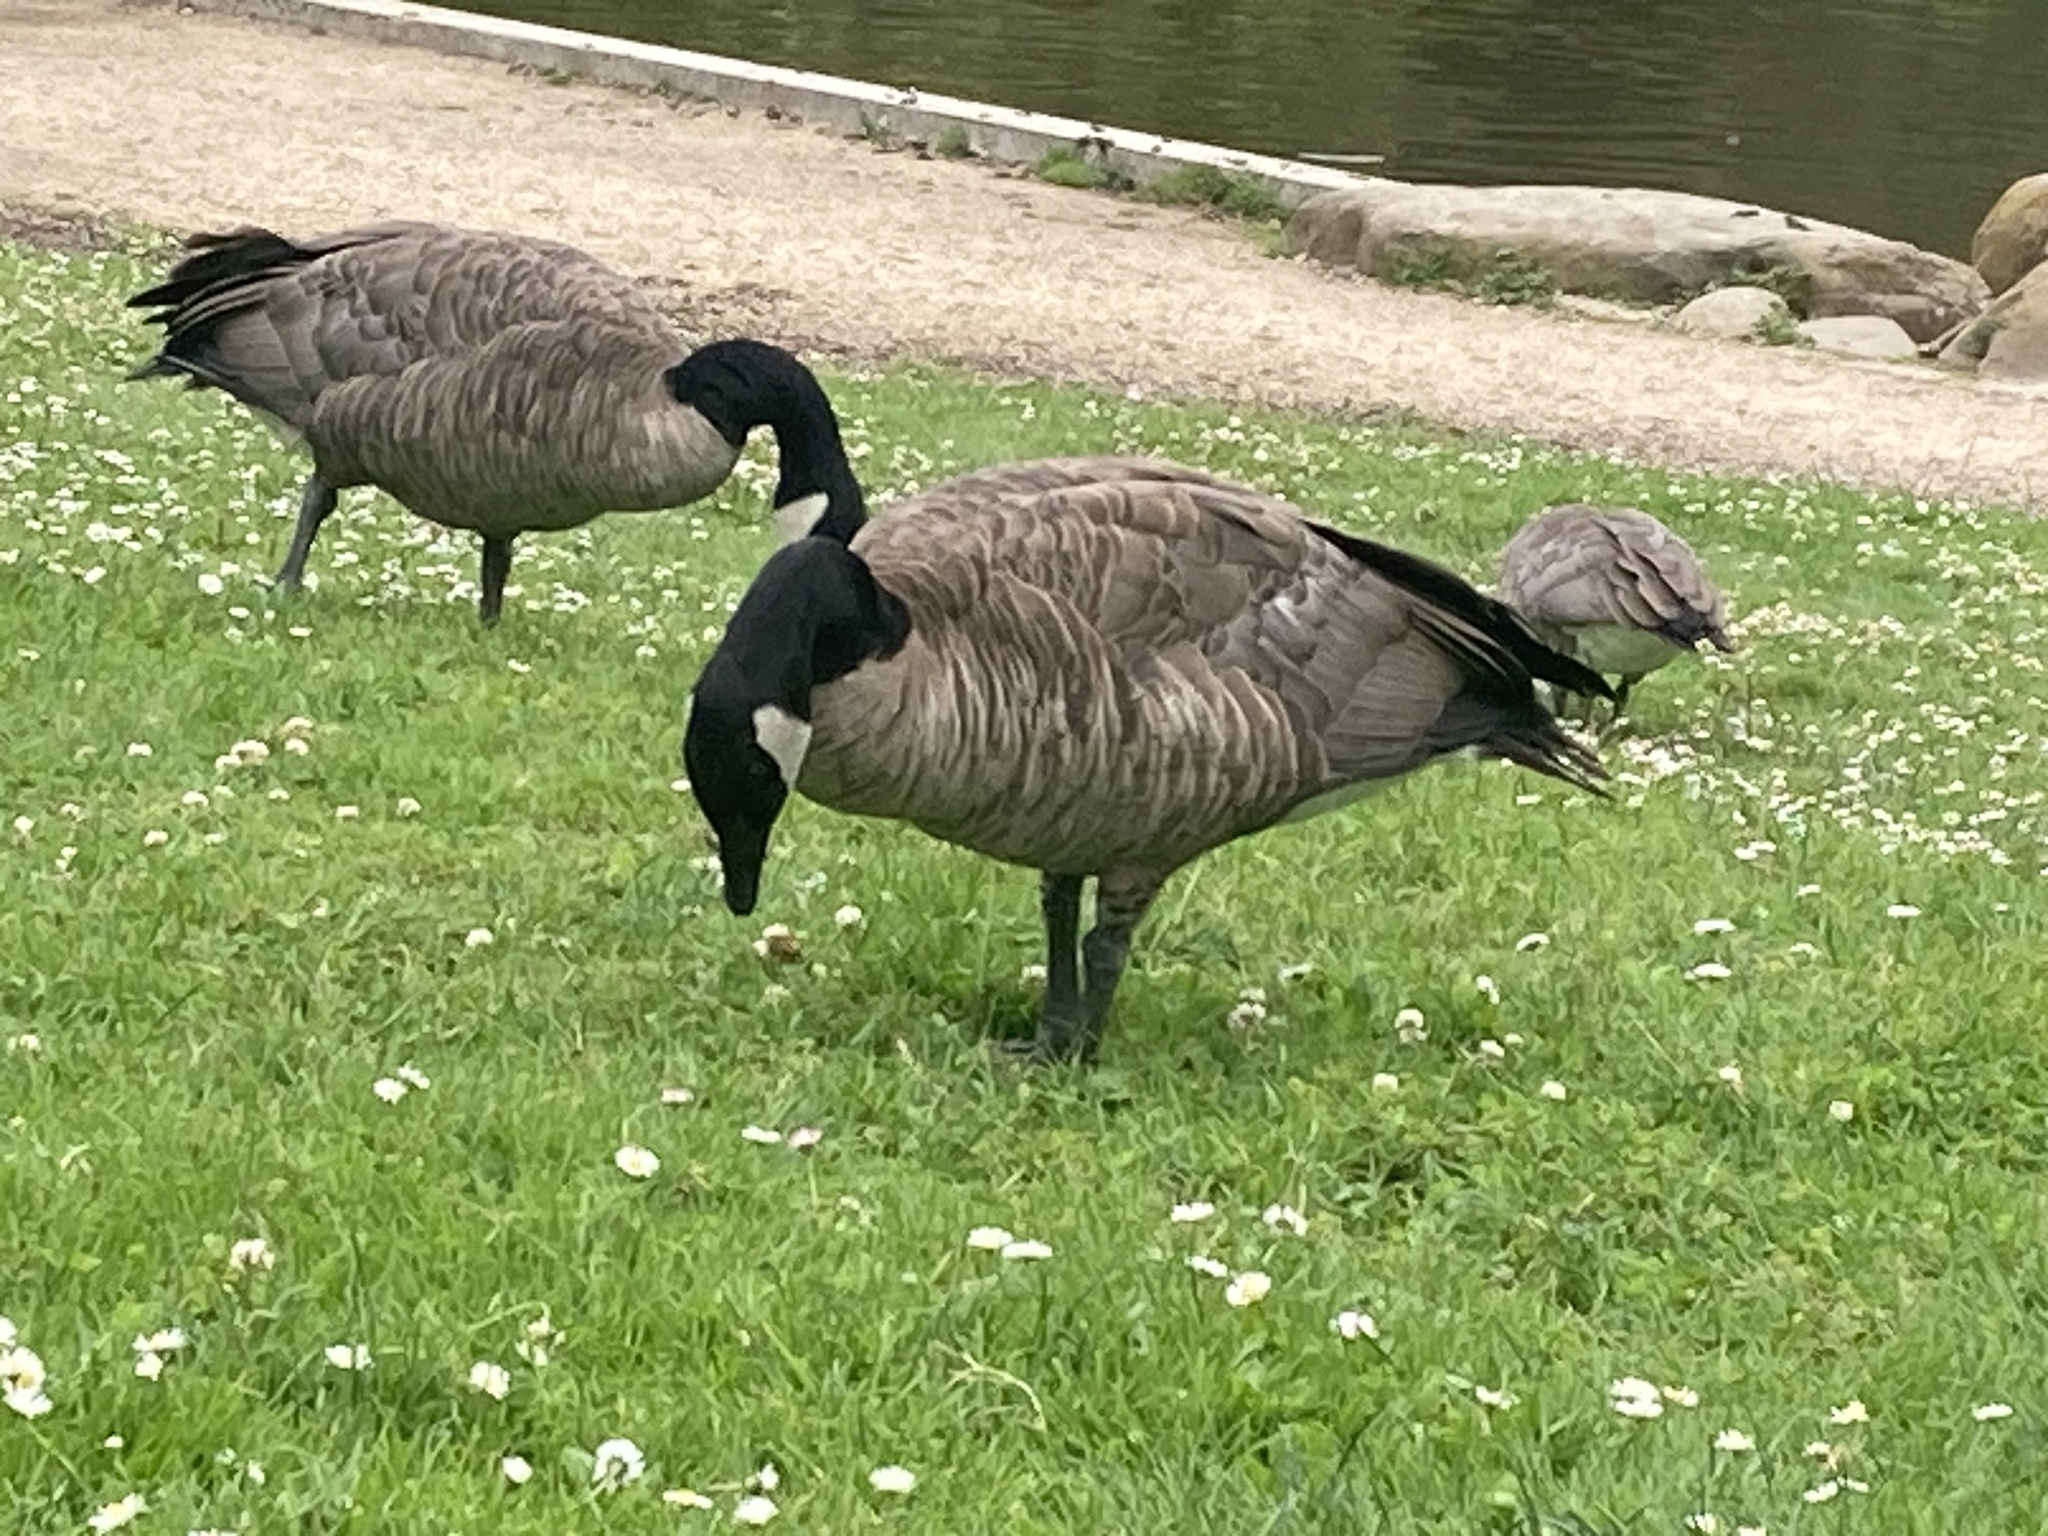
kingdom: Animalia
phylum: Chordata
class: Aves
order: Anseriformes
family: Anatidae
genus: Branta
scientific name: Branta canadensis
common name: Canada goose
